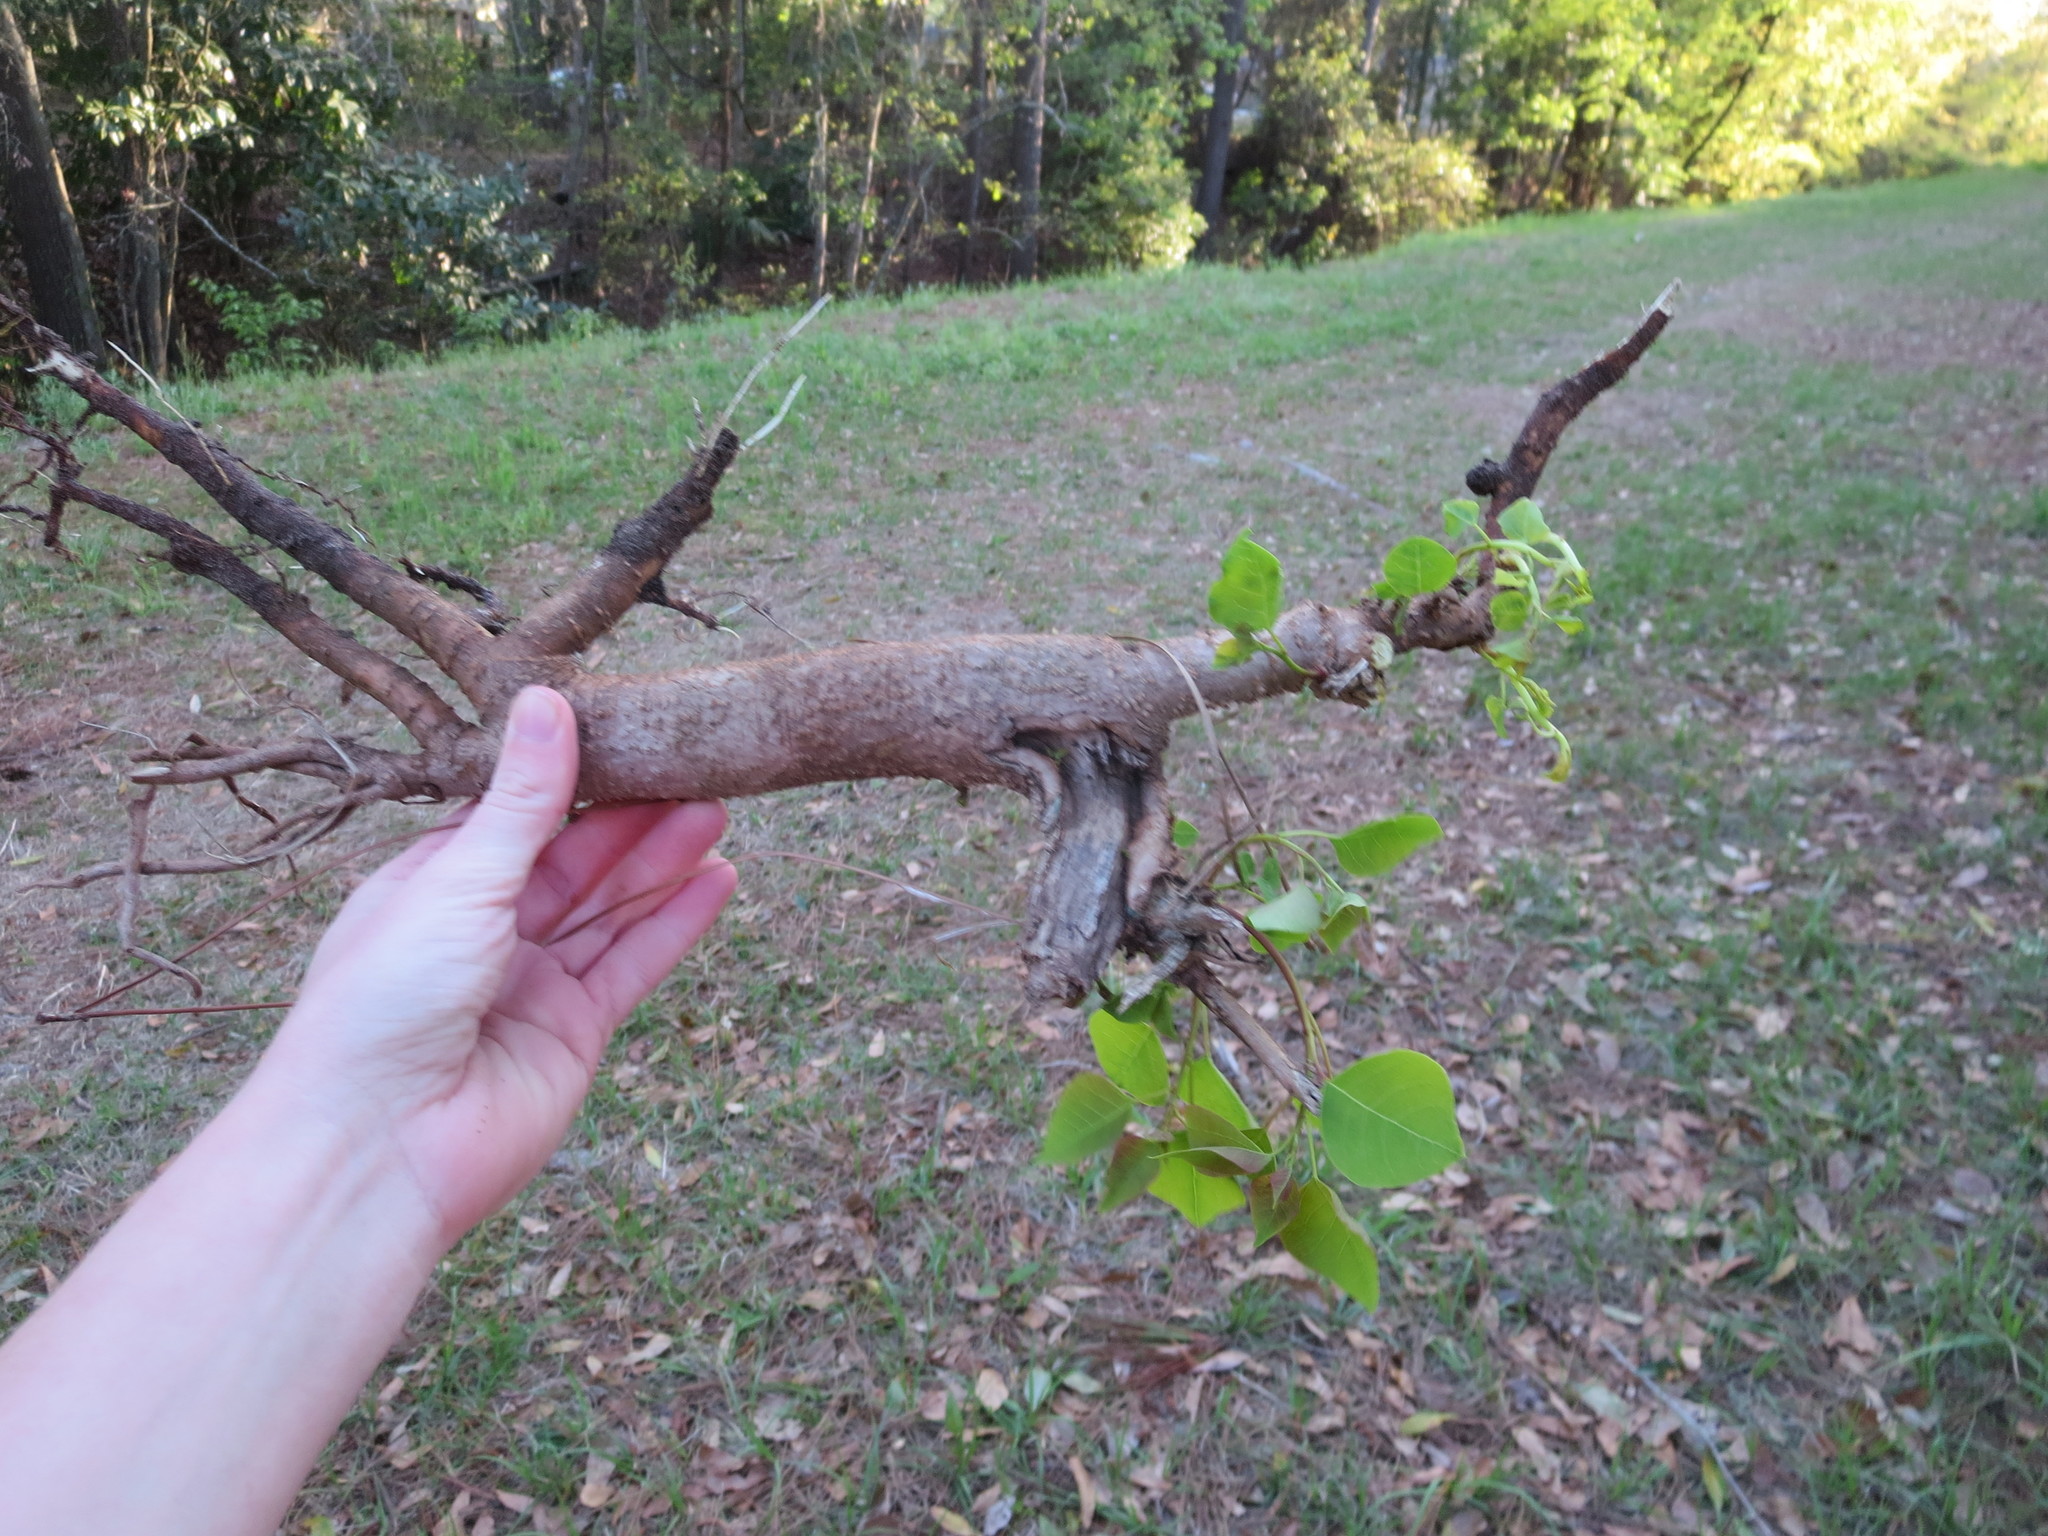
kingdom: Plantae
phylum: Tracheophyta
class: Magnoliopsida
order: Malpighiales
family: Euphorbiaceae
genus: Triadica
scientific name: Triadica sebifera
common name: Chinese tallow
